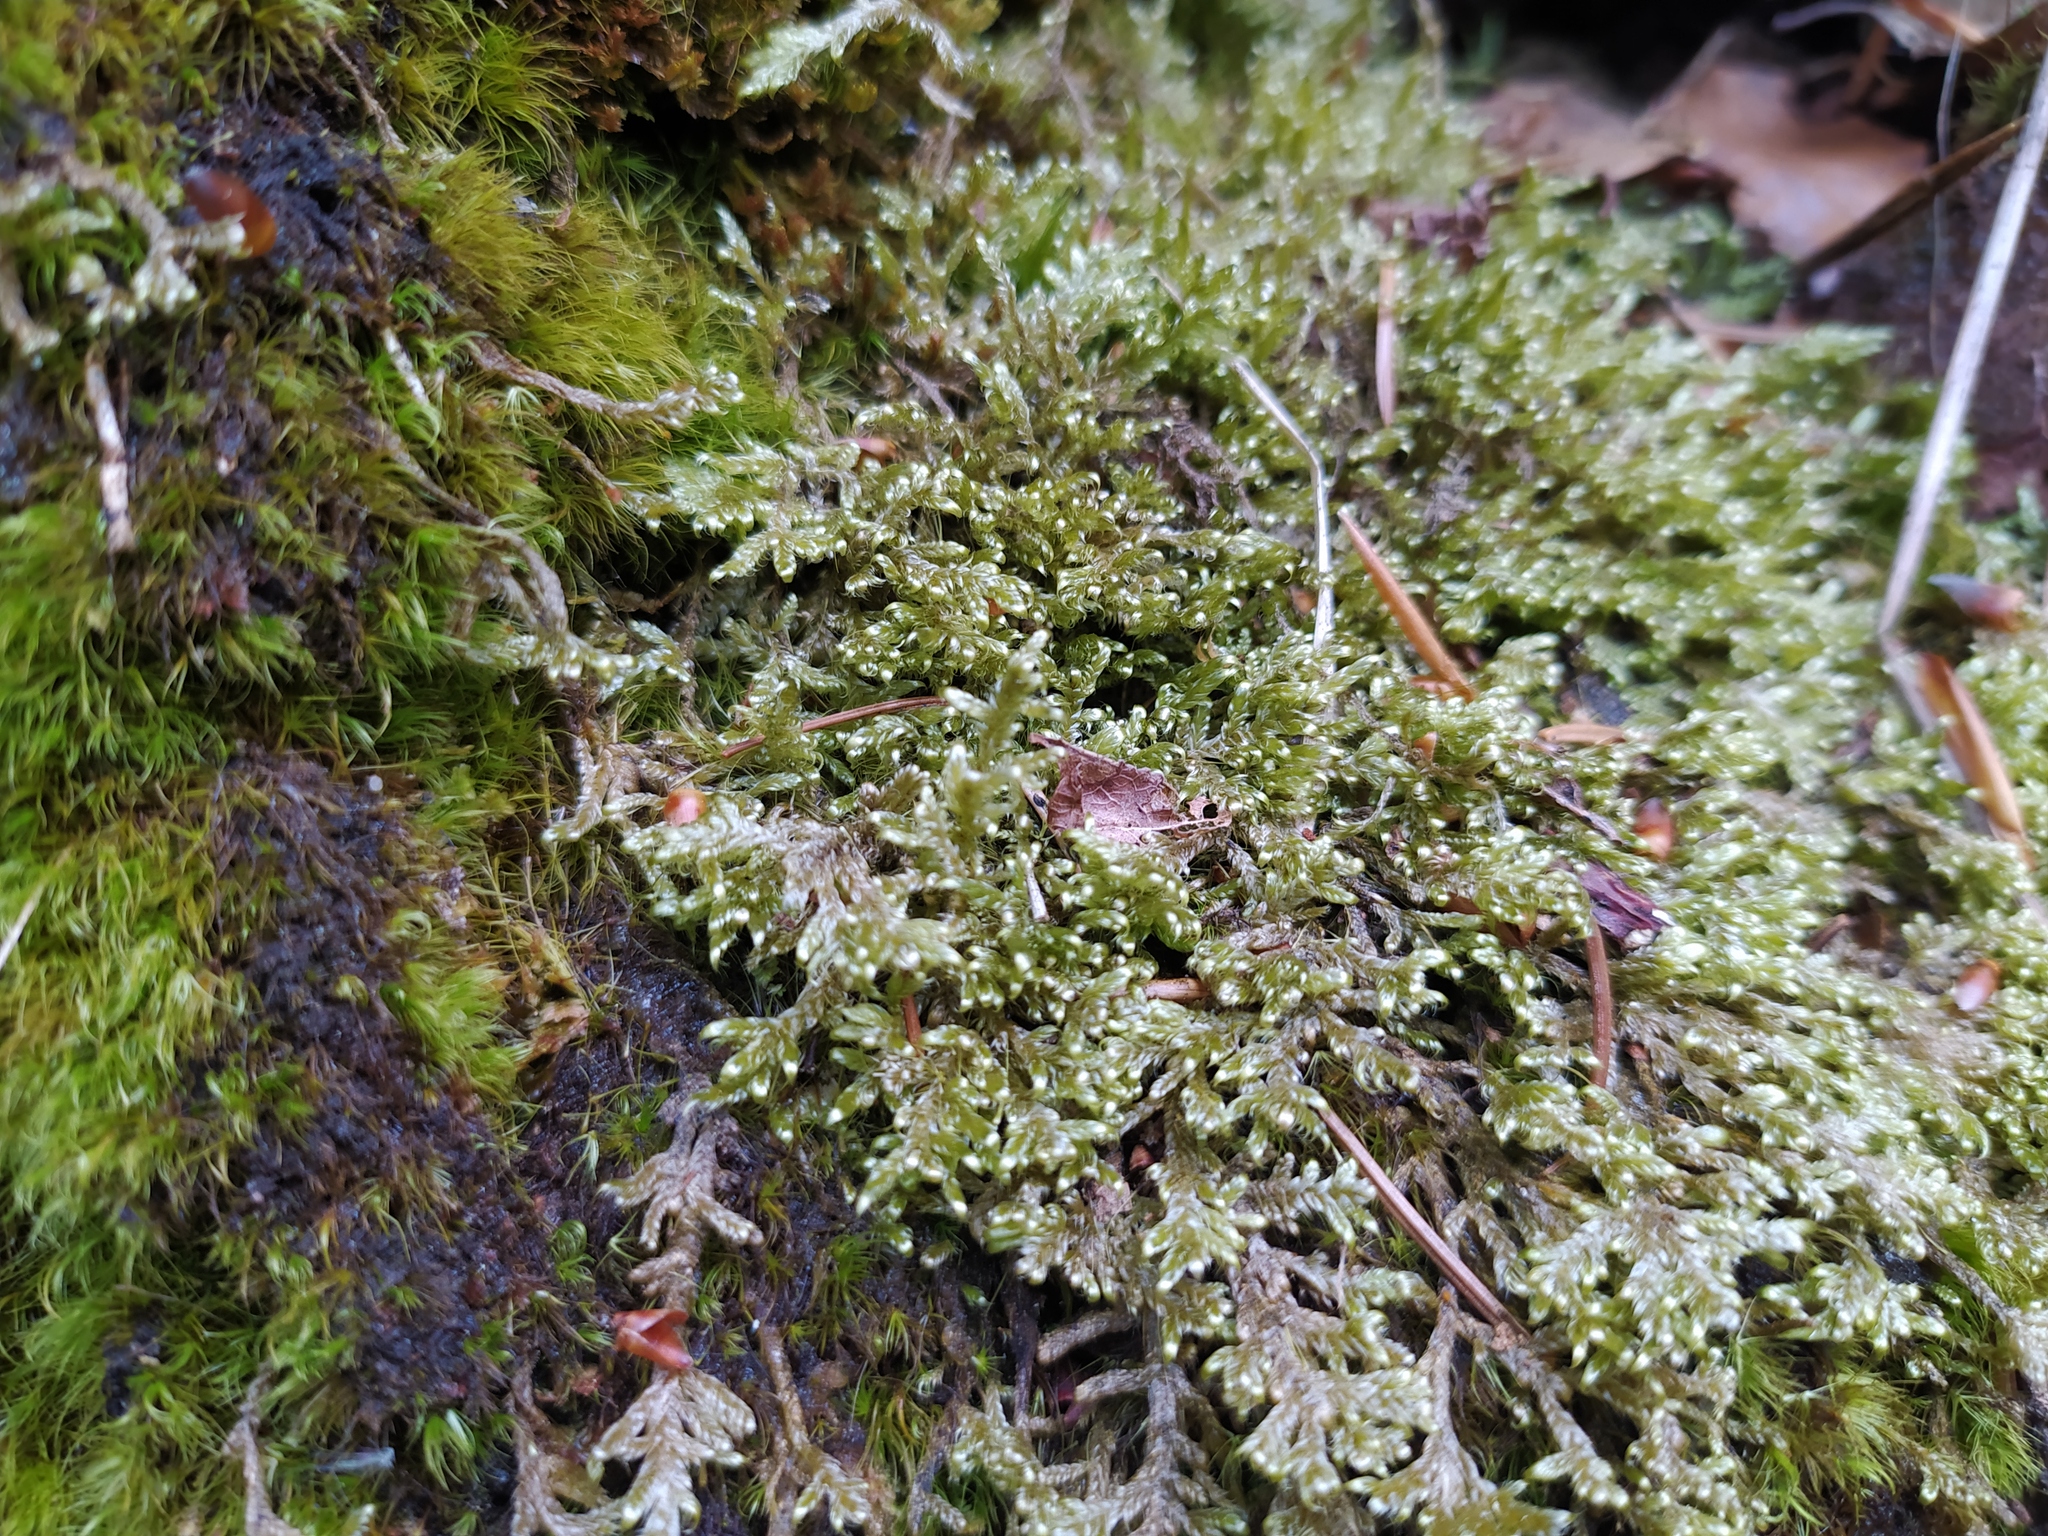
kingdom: Plantae
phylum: Bryophyta
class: Bryopsida
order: Hypnales
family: Hypnaceae
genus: Hypnum
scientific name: Hypnum jutlandicum
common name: Heath plait-moss
